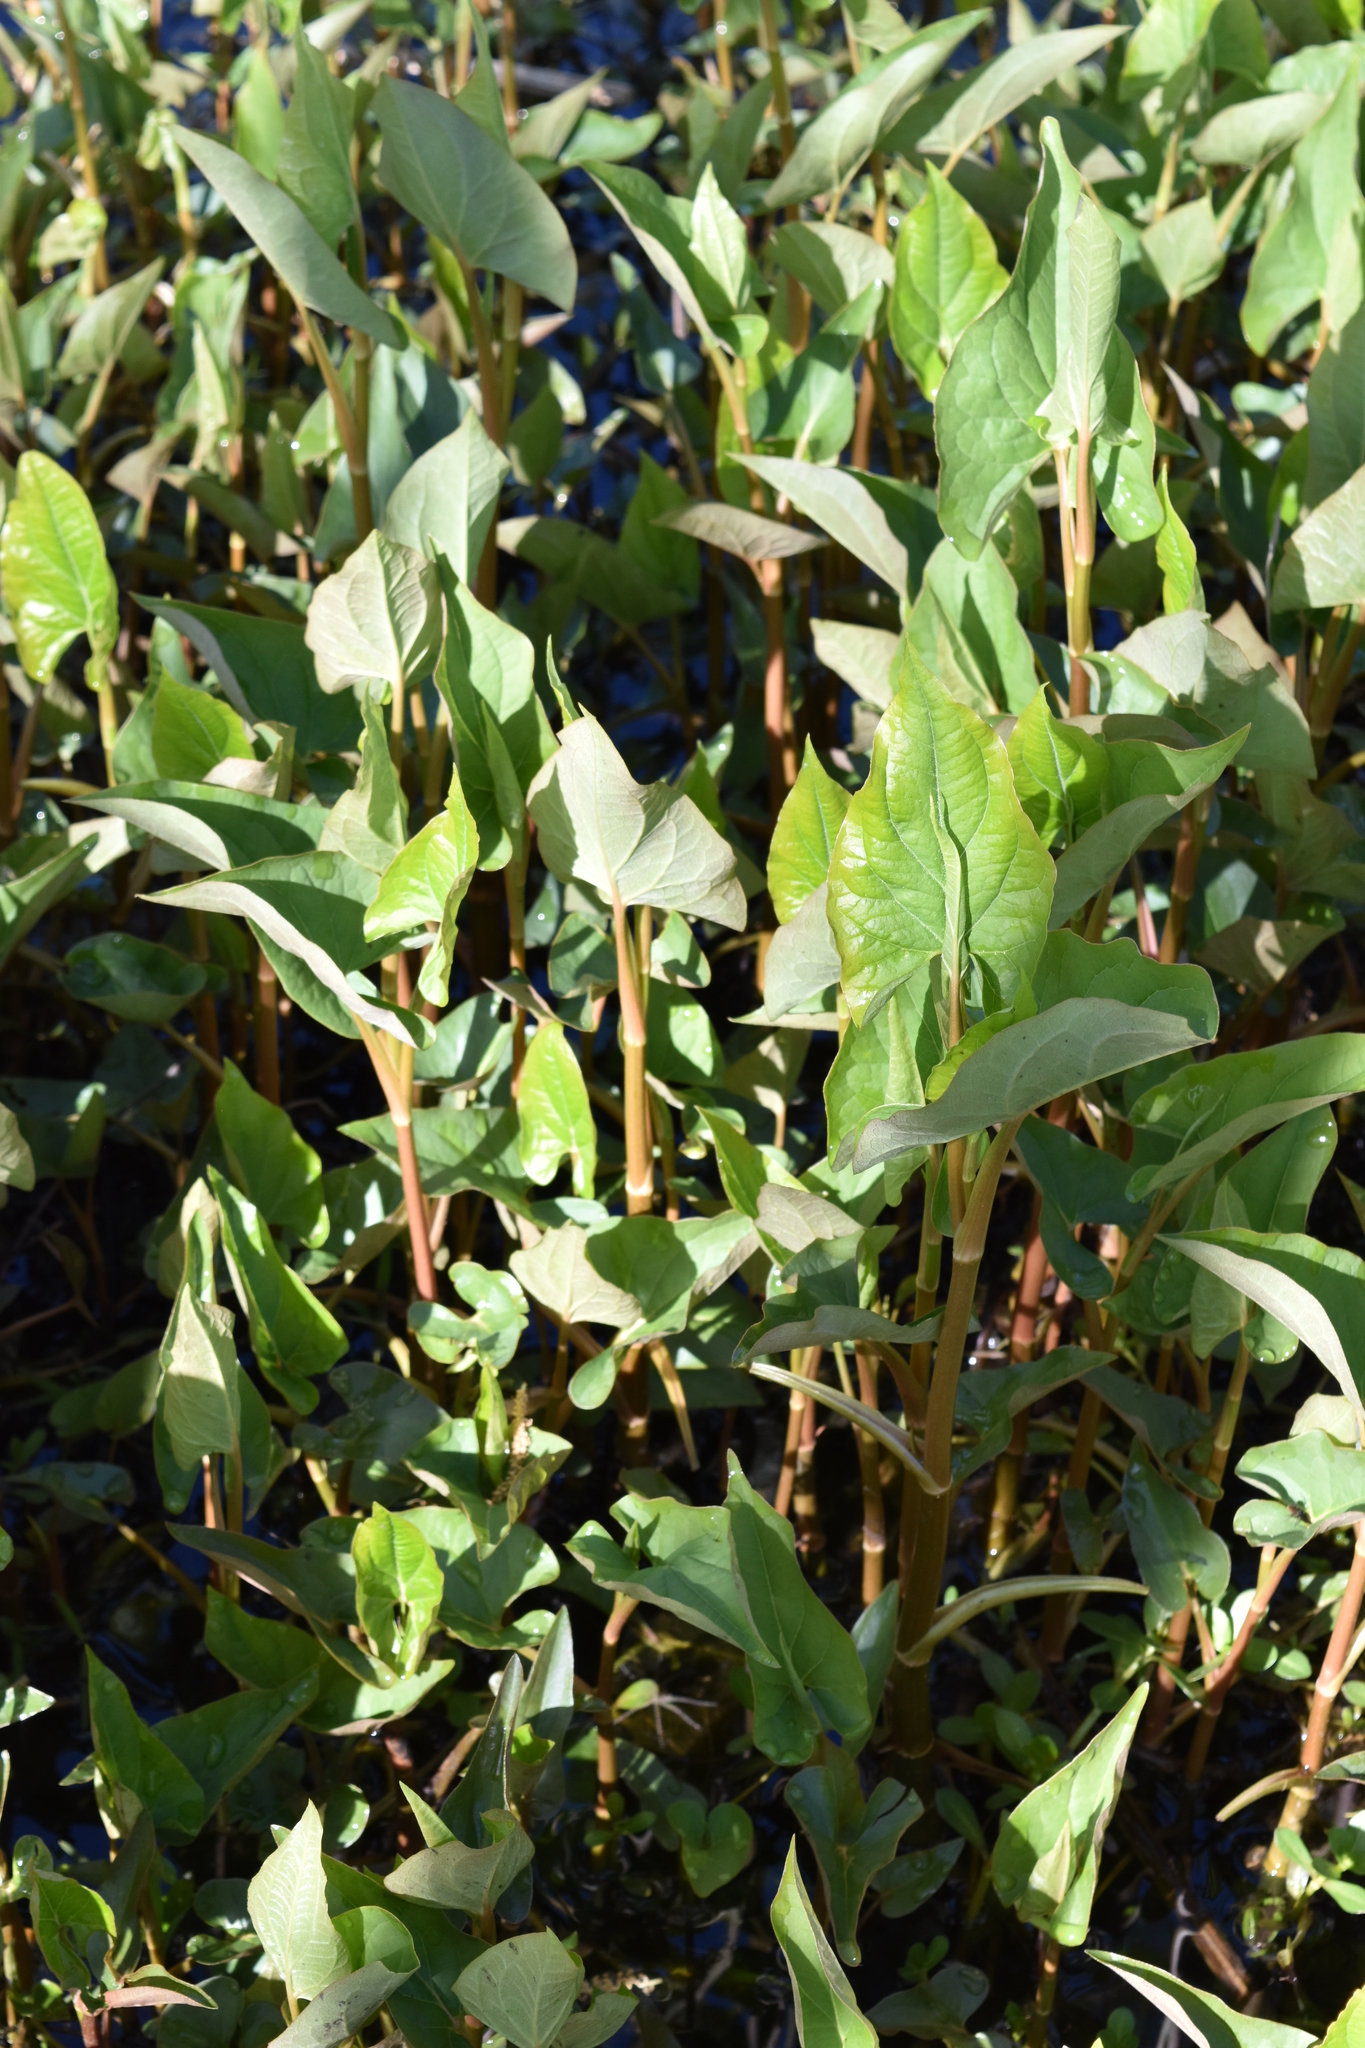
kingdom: Plantae
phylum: Tracheophyta
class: Magnoliopsida
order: Piperales
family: Saururaceae
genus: Saururus
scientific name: Saururus cernuus
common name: Lizard's-tail
